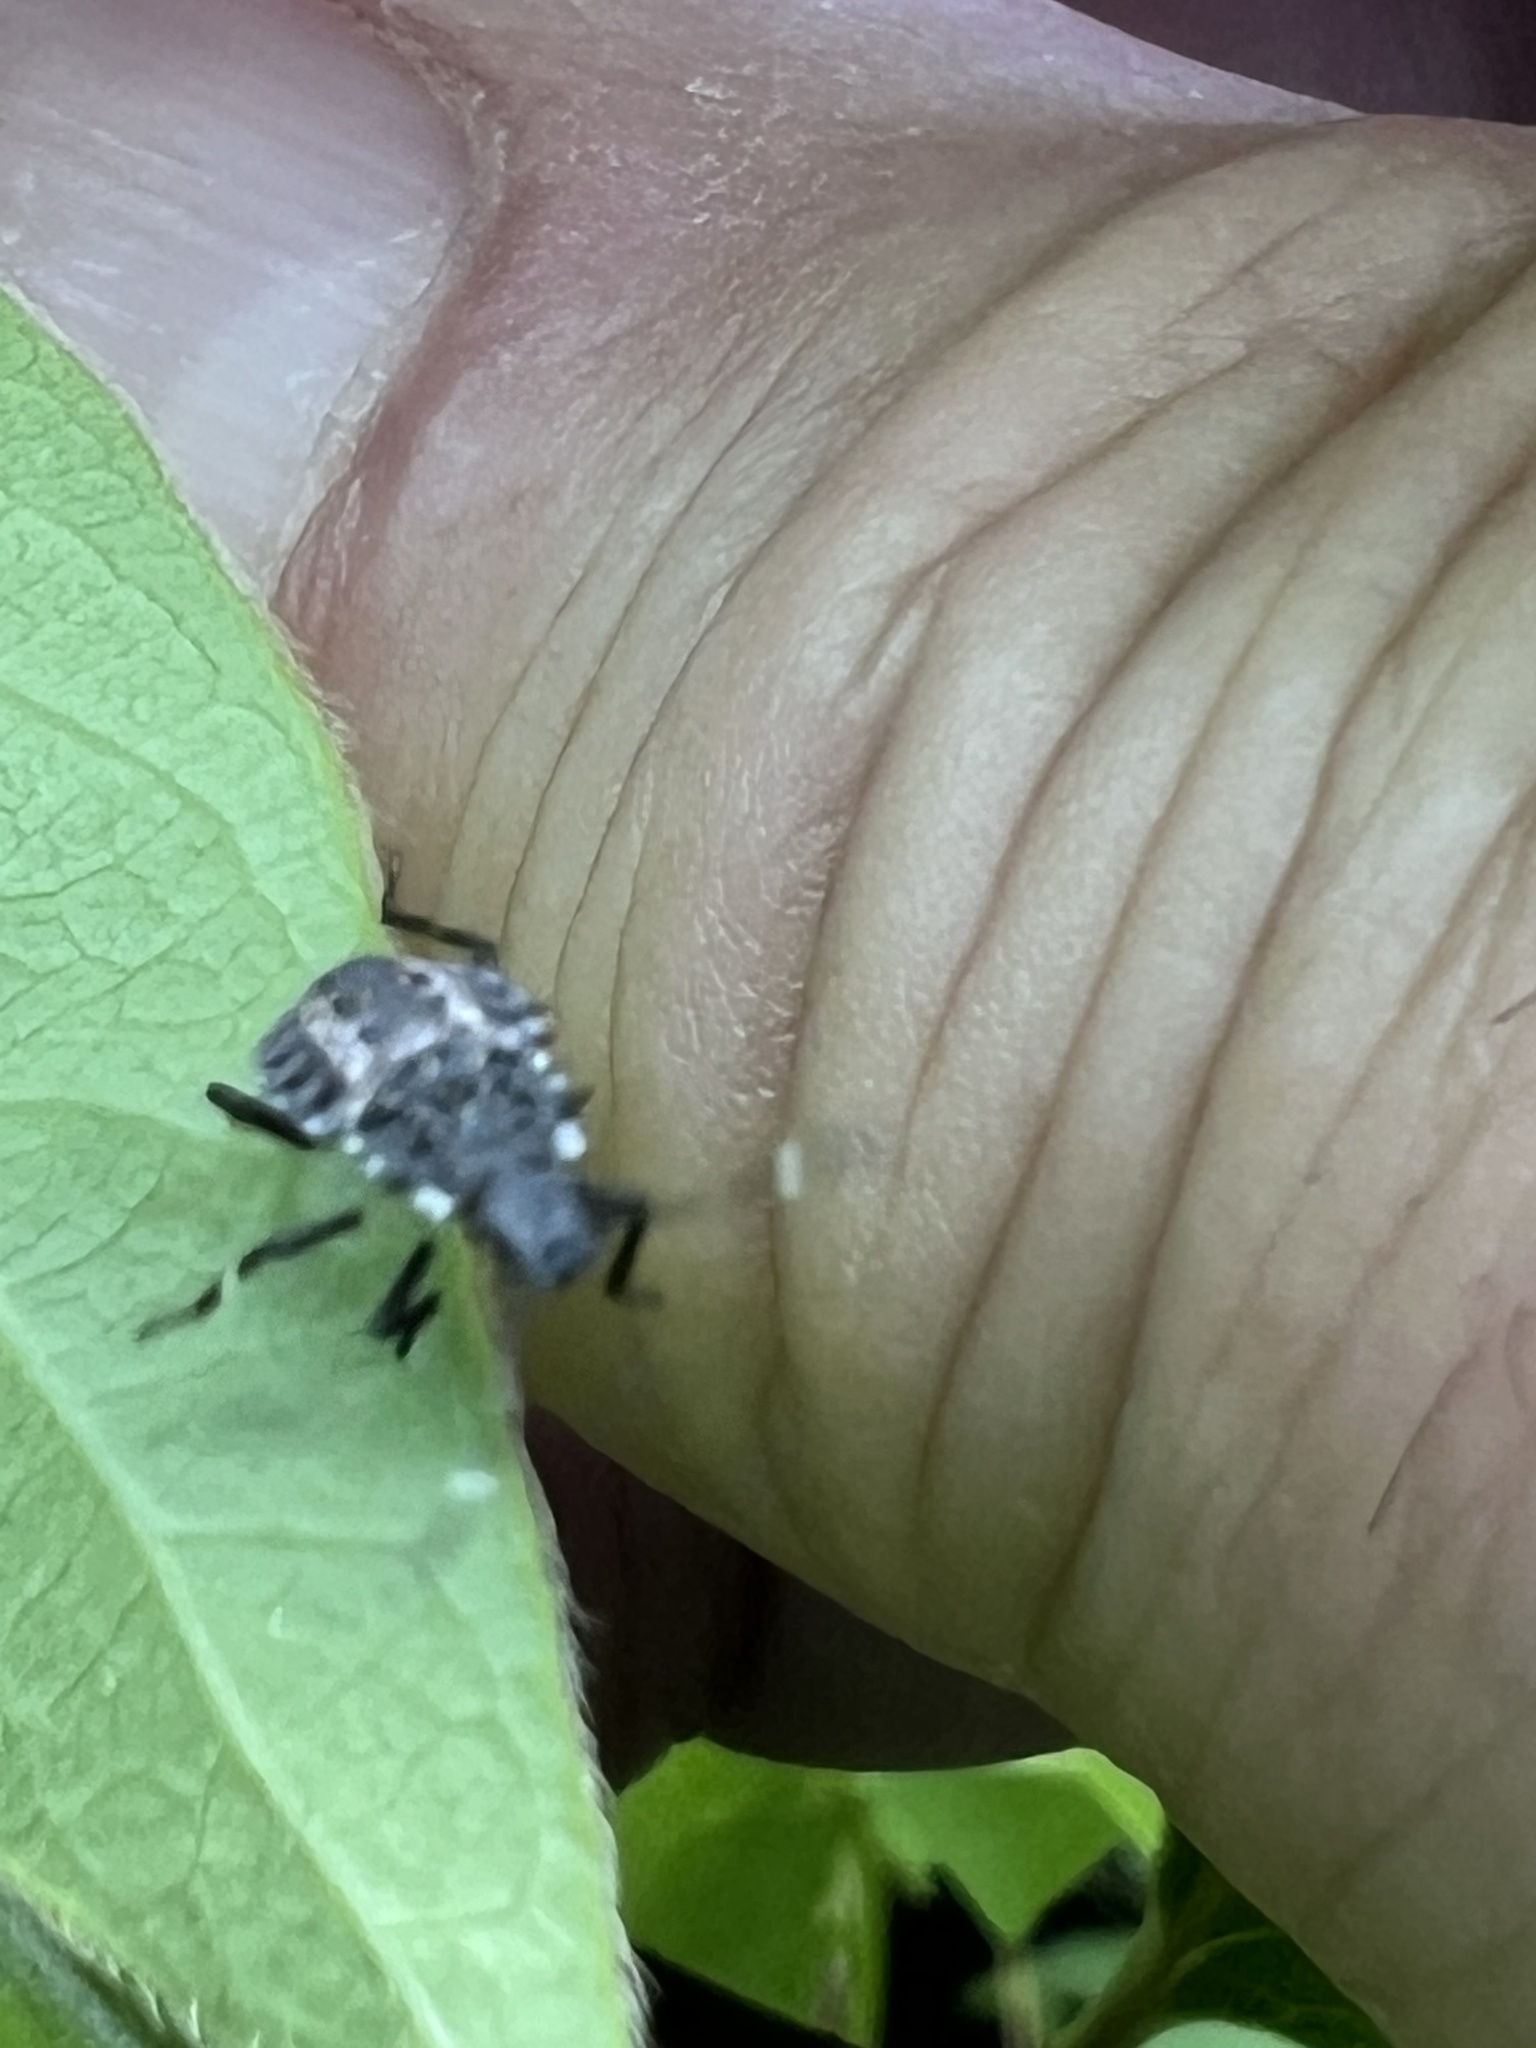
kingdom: Animalia
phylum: Arthropoda
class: Insecta
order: Hemiptera
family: Pentatomidae
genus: Halyomorpha
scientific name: Halyomorpha halys
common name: Brown marmorated stink bug
